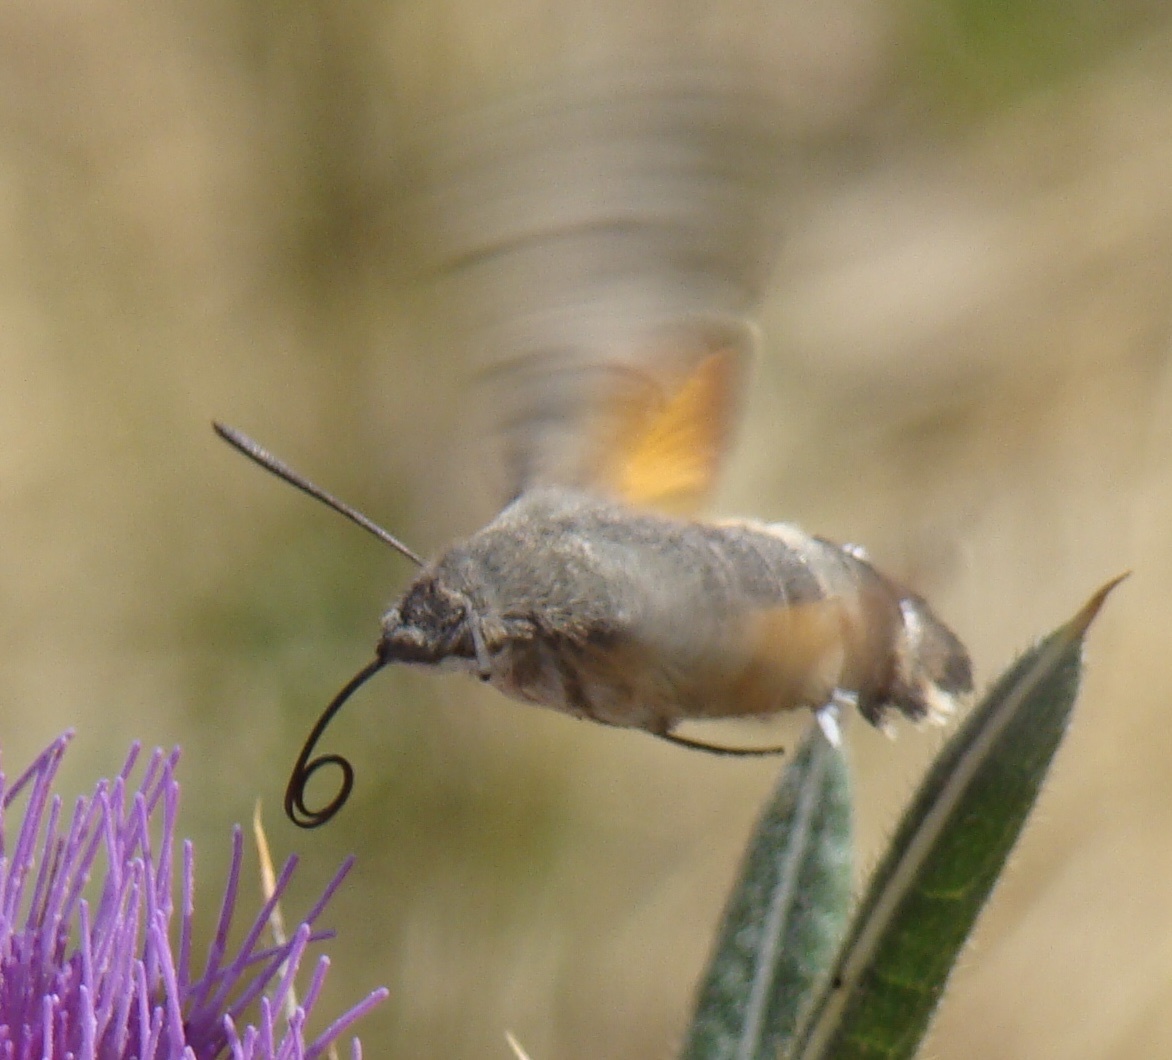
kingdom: Animalia
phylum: Arthropoda
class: Insecta
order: Lepidoptera
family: Sphingidae
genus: Macroglossum
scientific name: Macroglossum stellatarum
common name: Humming-bird hawk-moth
